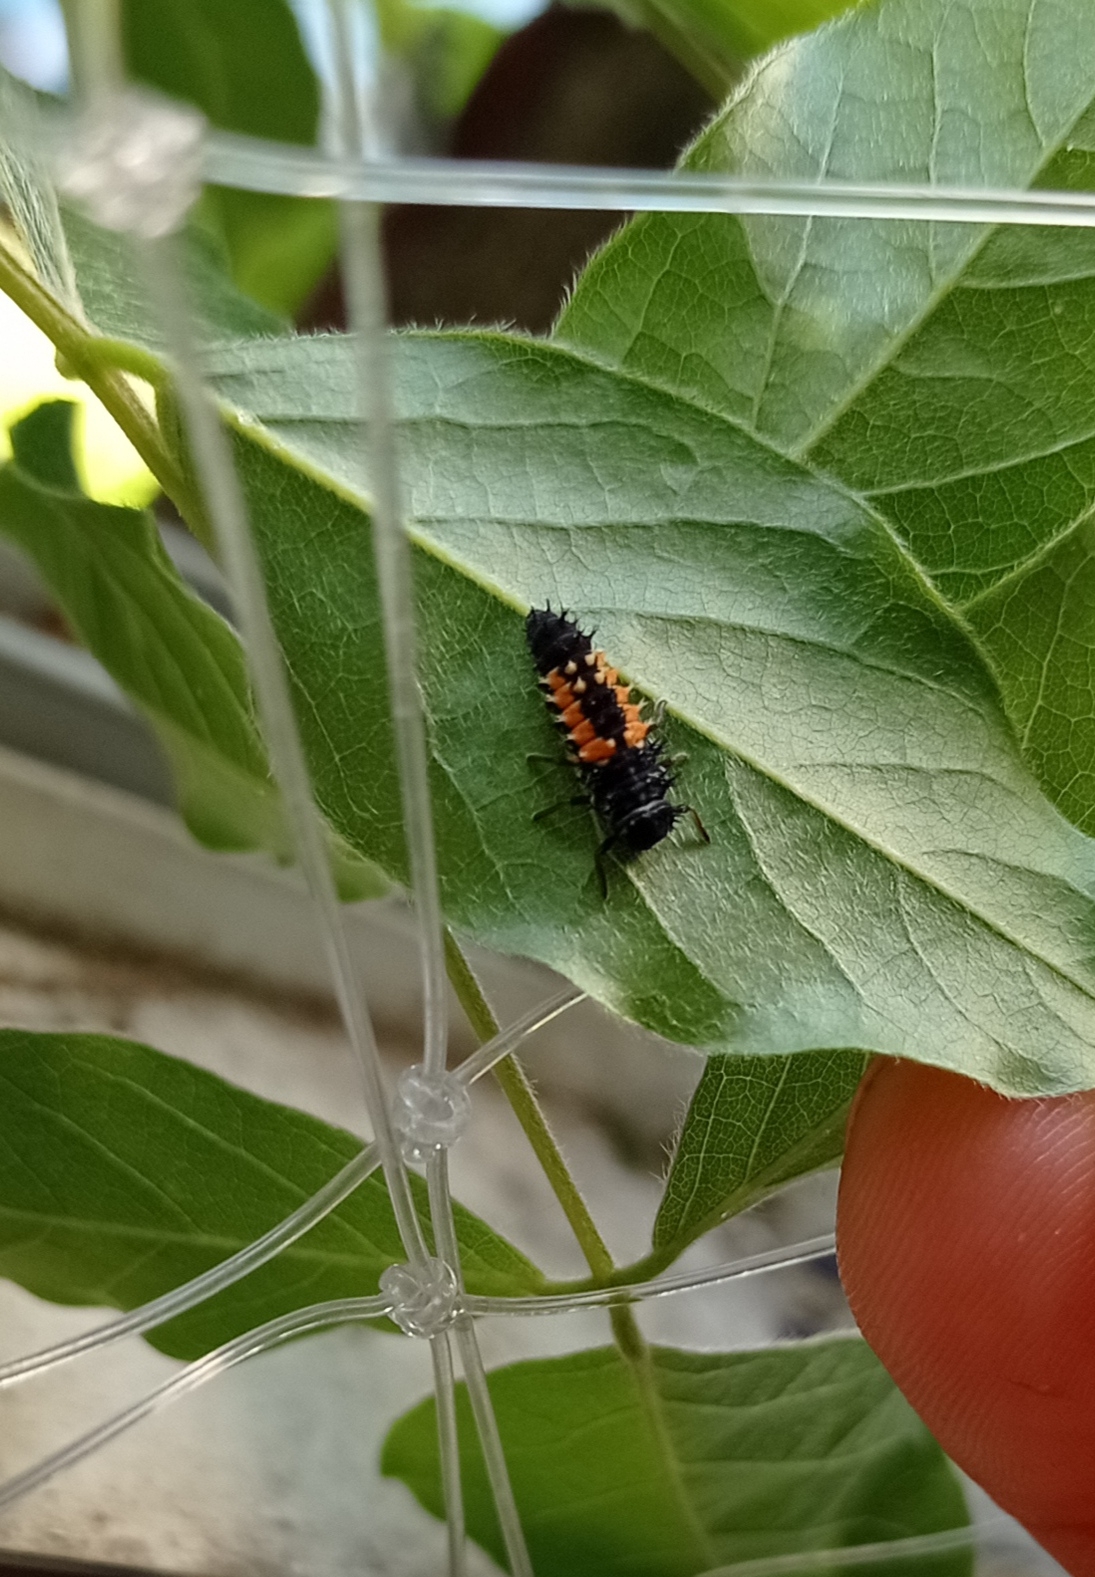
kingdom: Animalia
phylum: Arthropoda
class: Insecta
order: Coleoptera
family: Coccinellidae
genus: Harmonia
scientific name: Harmonia axyridis
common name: Harlequin ladybird
